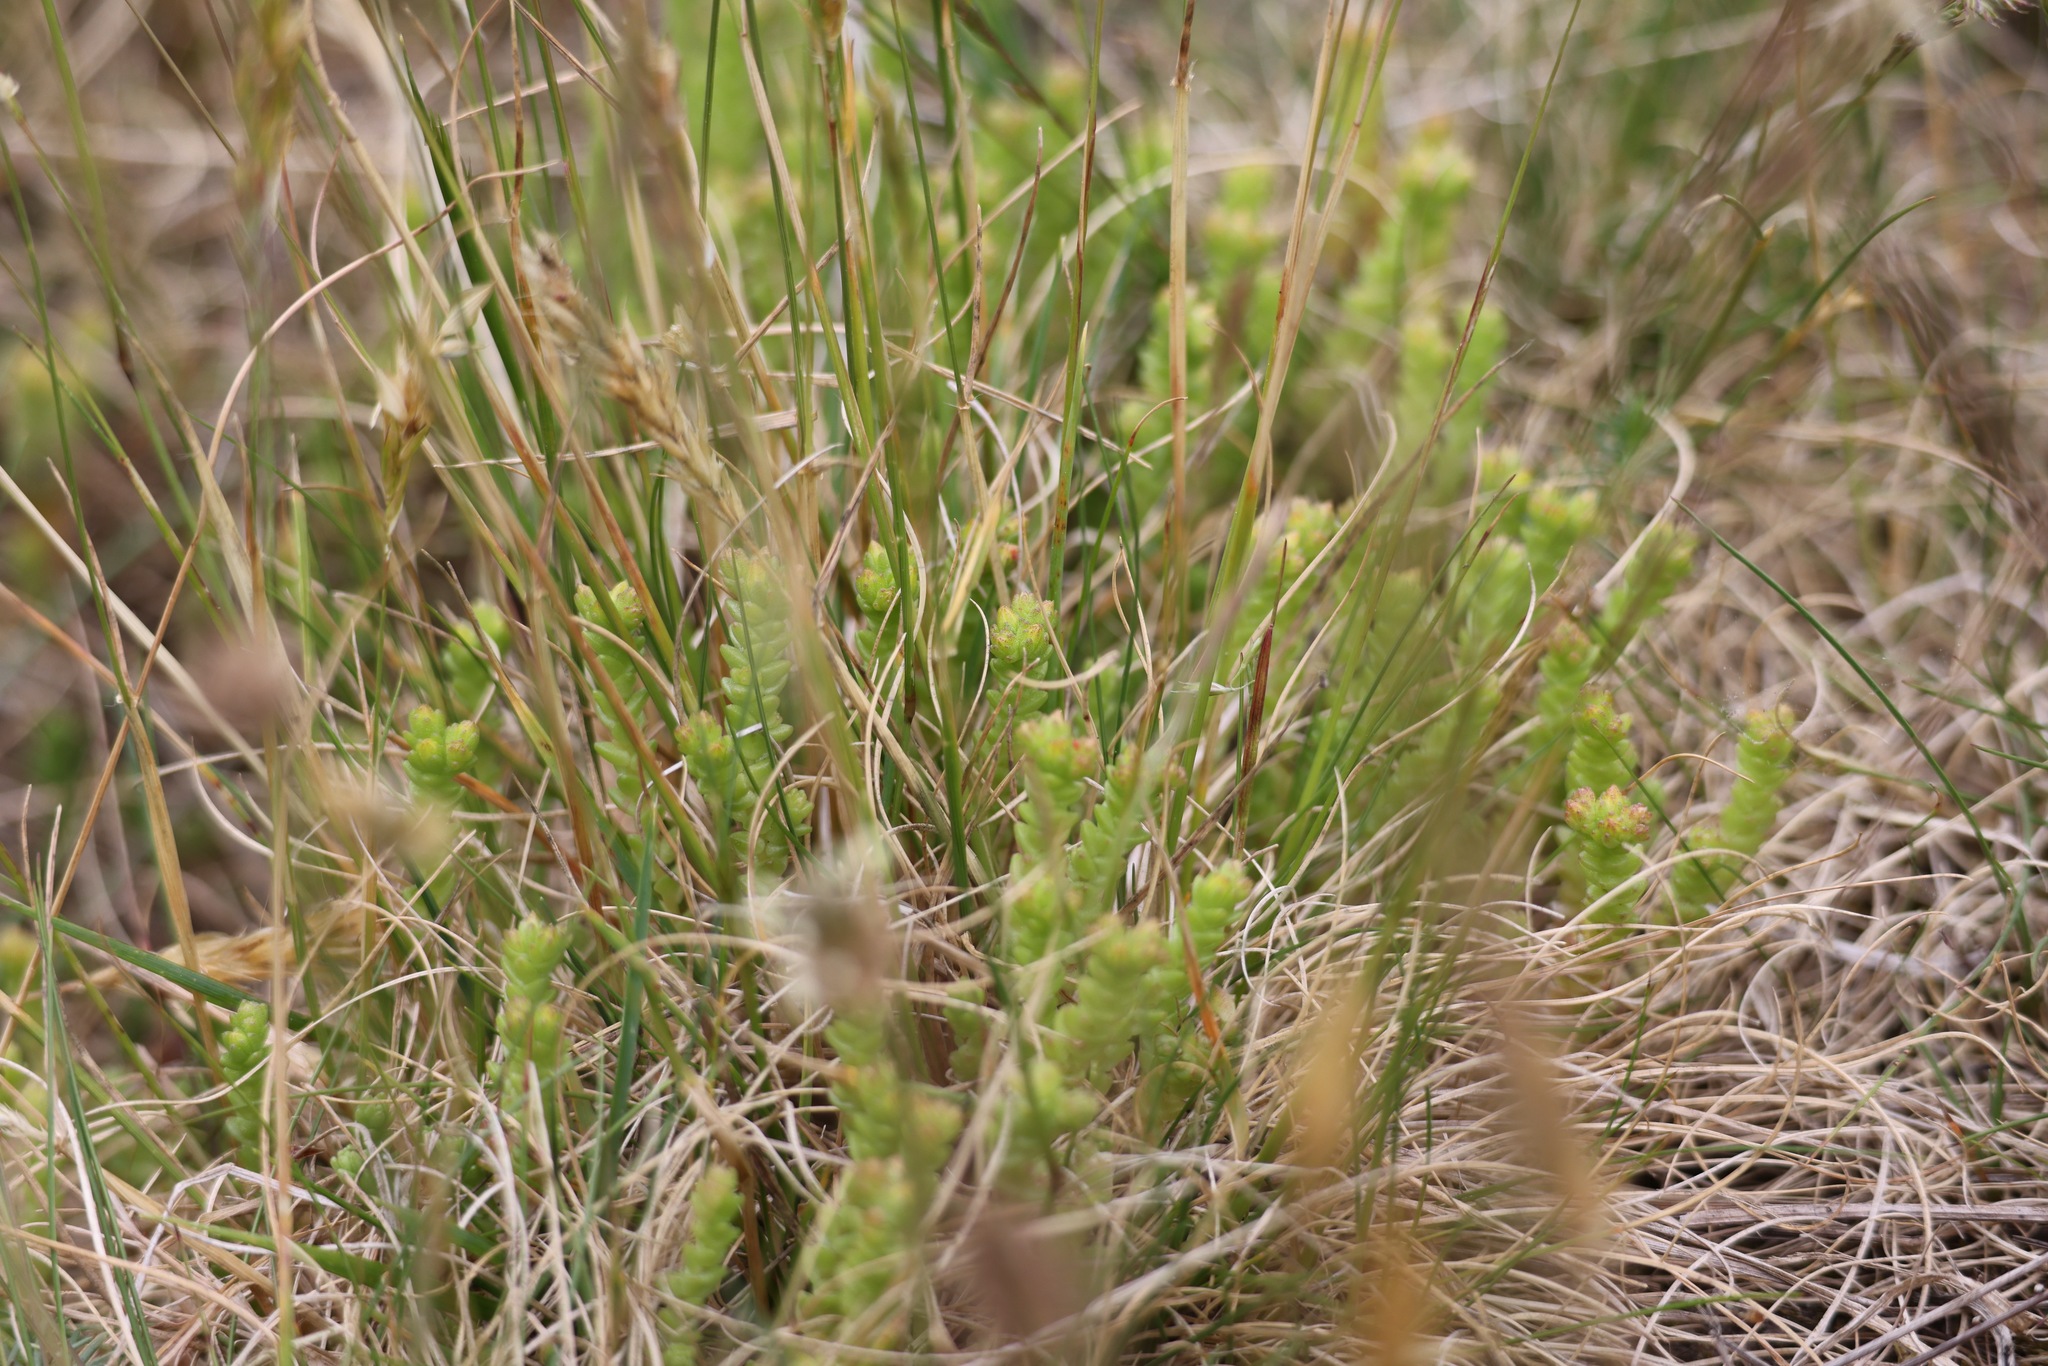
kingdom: Plantae
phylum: Tracheophyta
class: Magnoliopsida
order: Saxifragales
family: Crassulaceae
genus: Sedum
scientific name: Sedum acre
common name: Biting stonecrop
